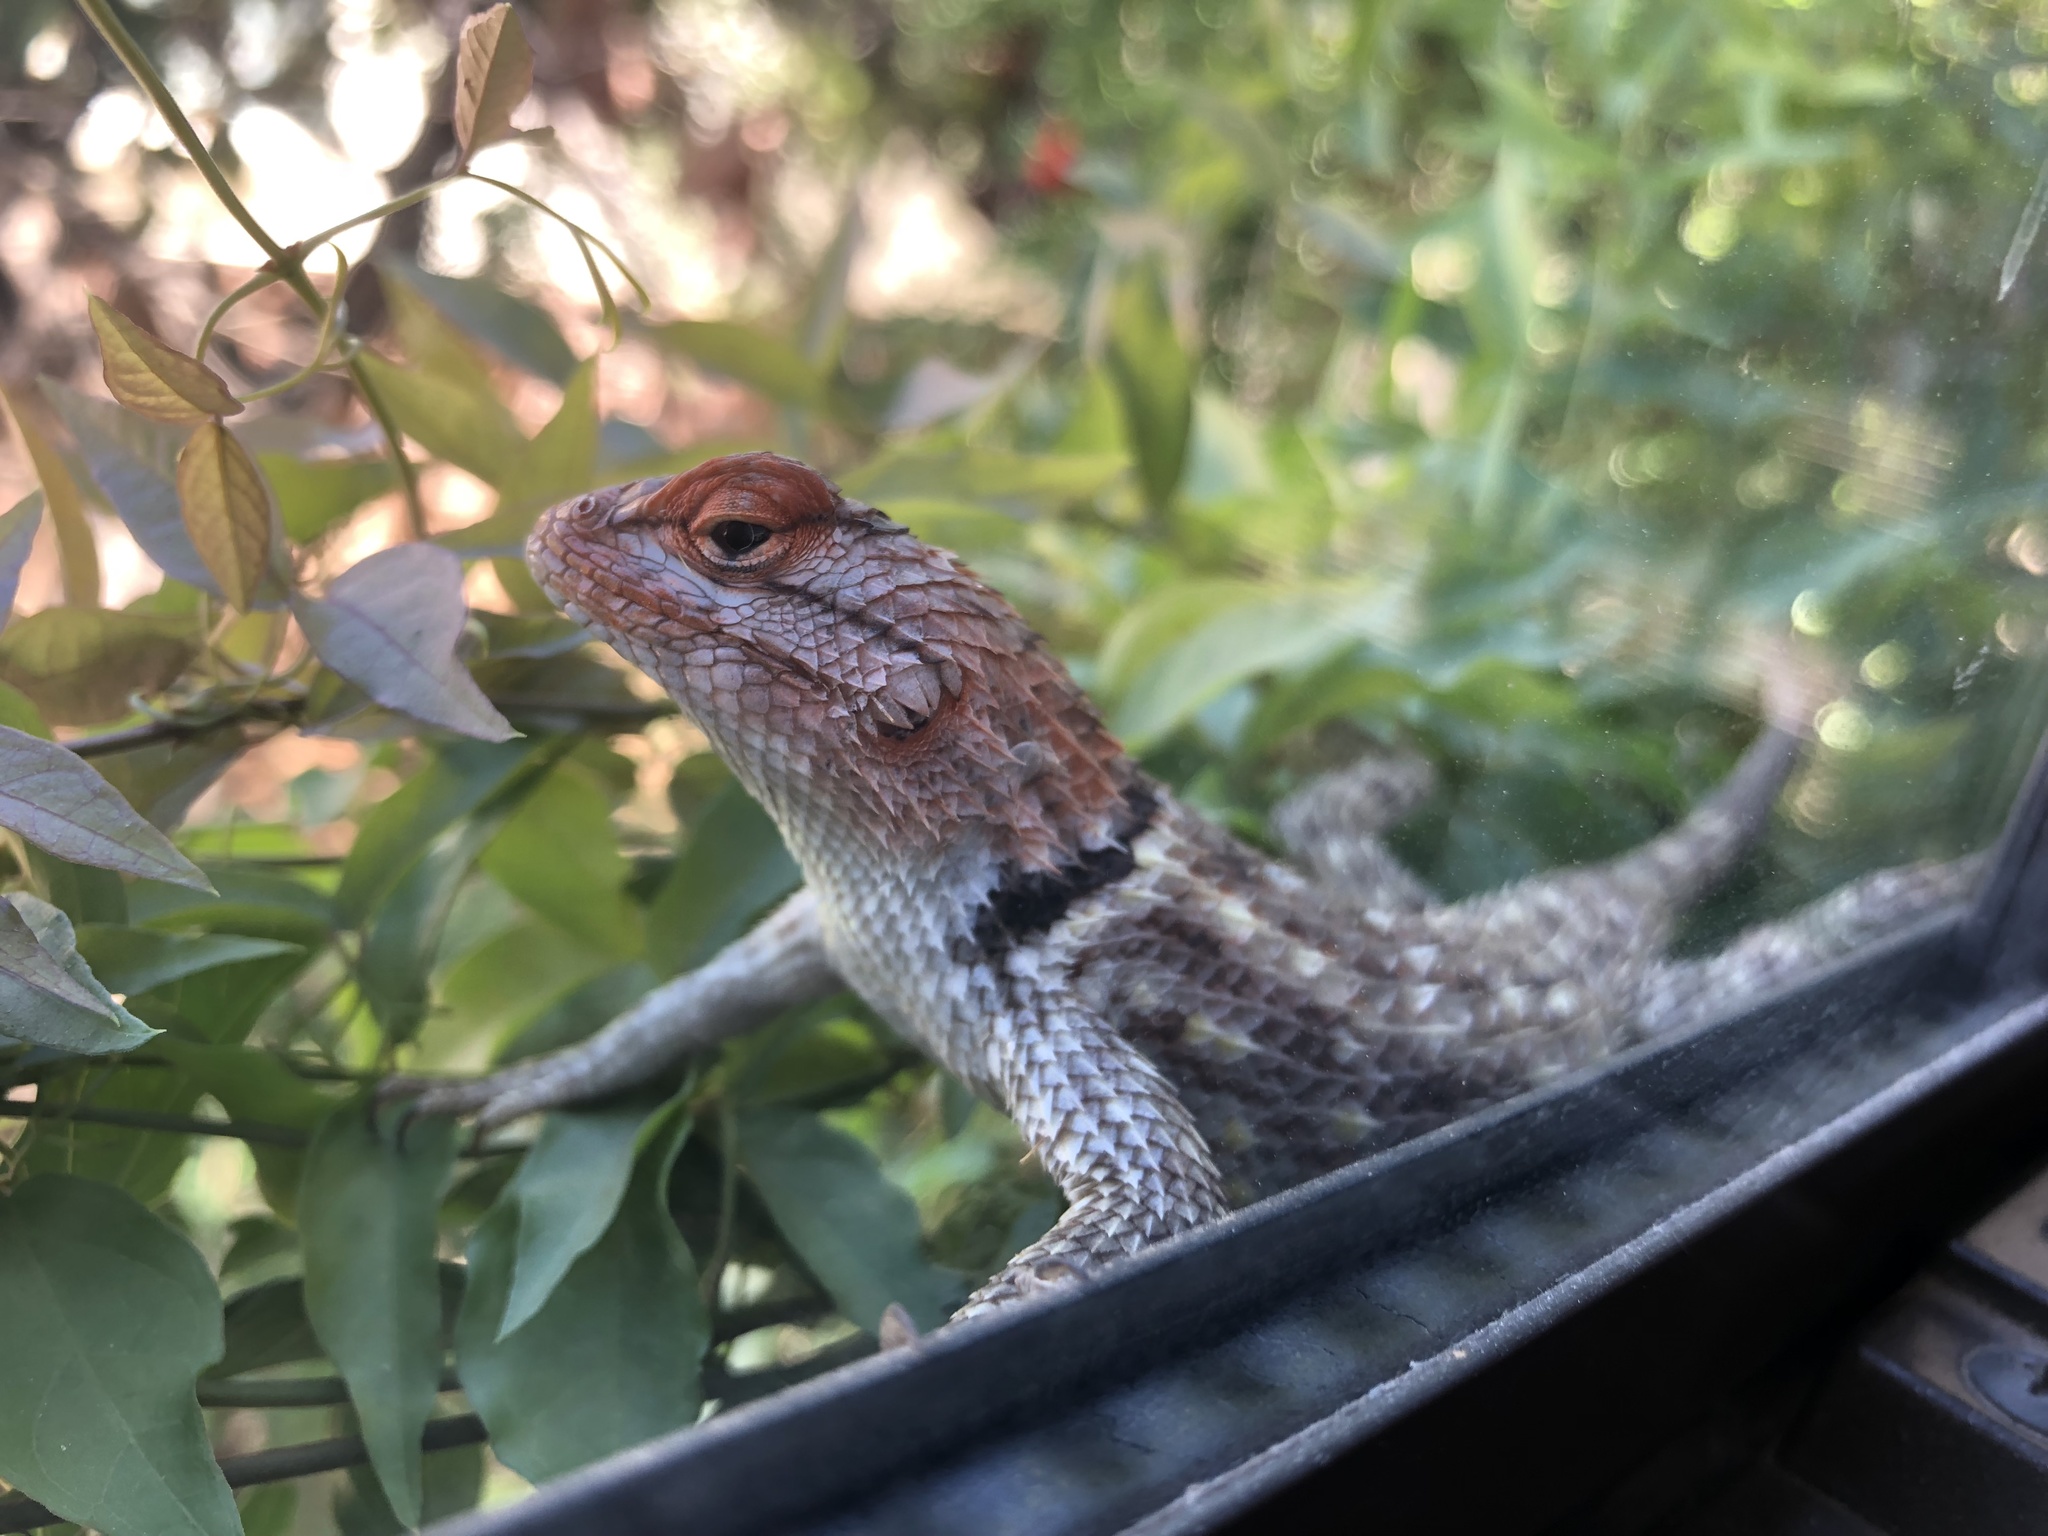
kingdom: Animalia
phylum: Chordata
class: Squamata
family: Phrynosomatidae
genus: Sceloporus
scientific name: Sceloporus magister
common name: Desert spiny lizard
